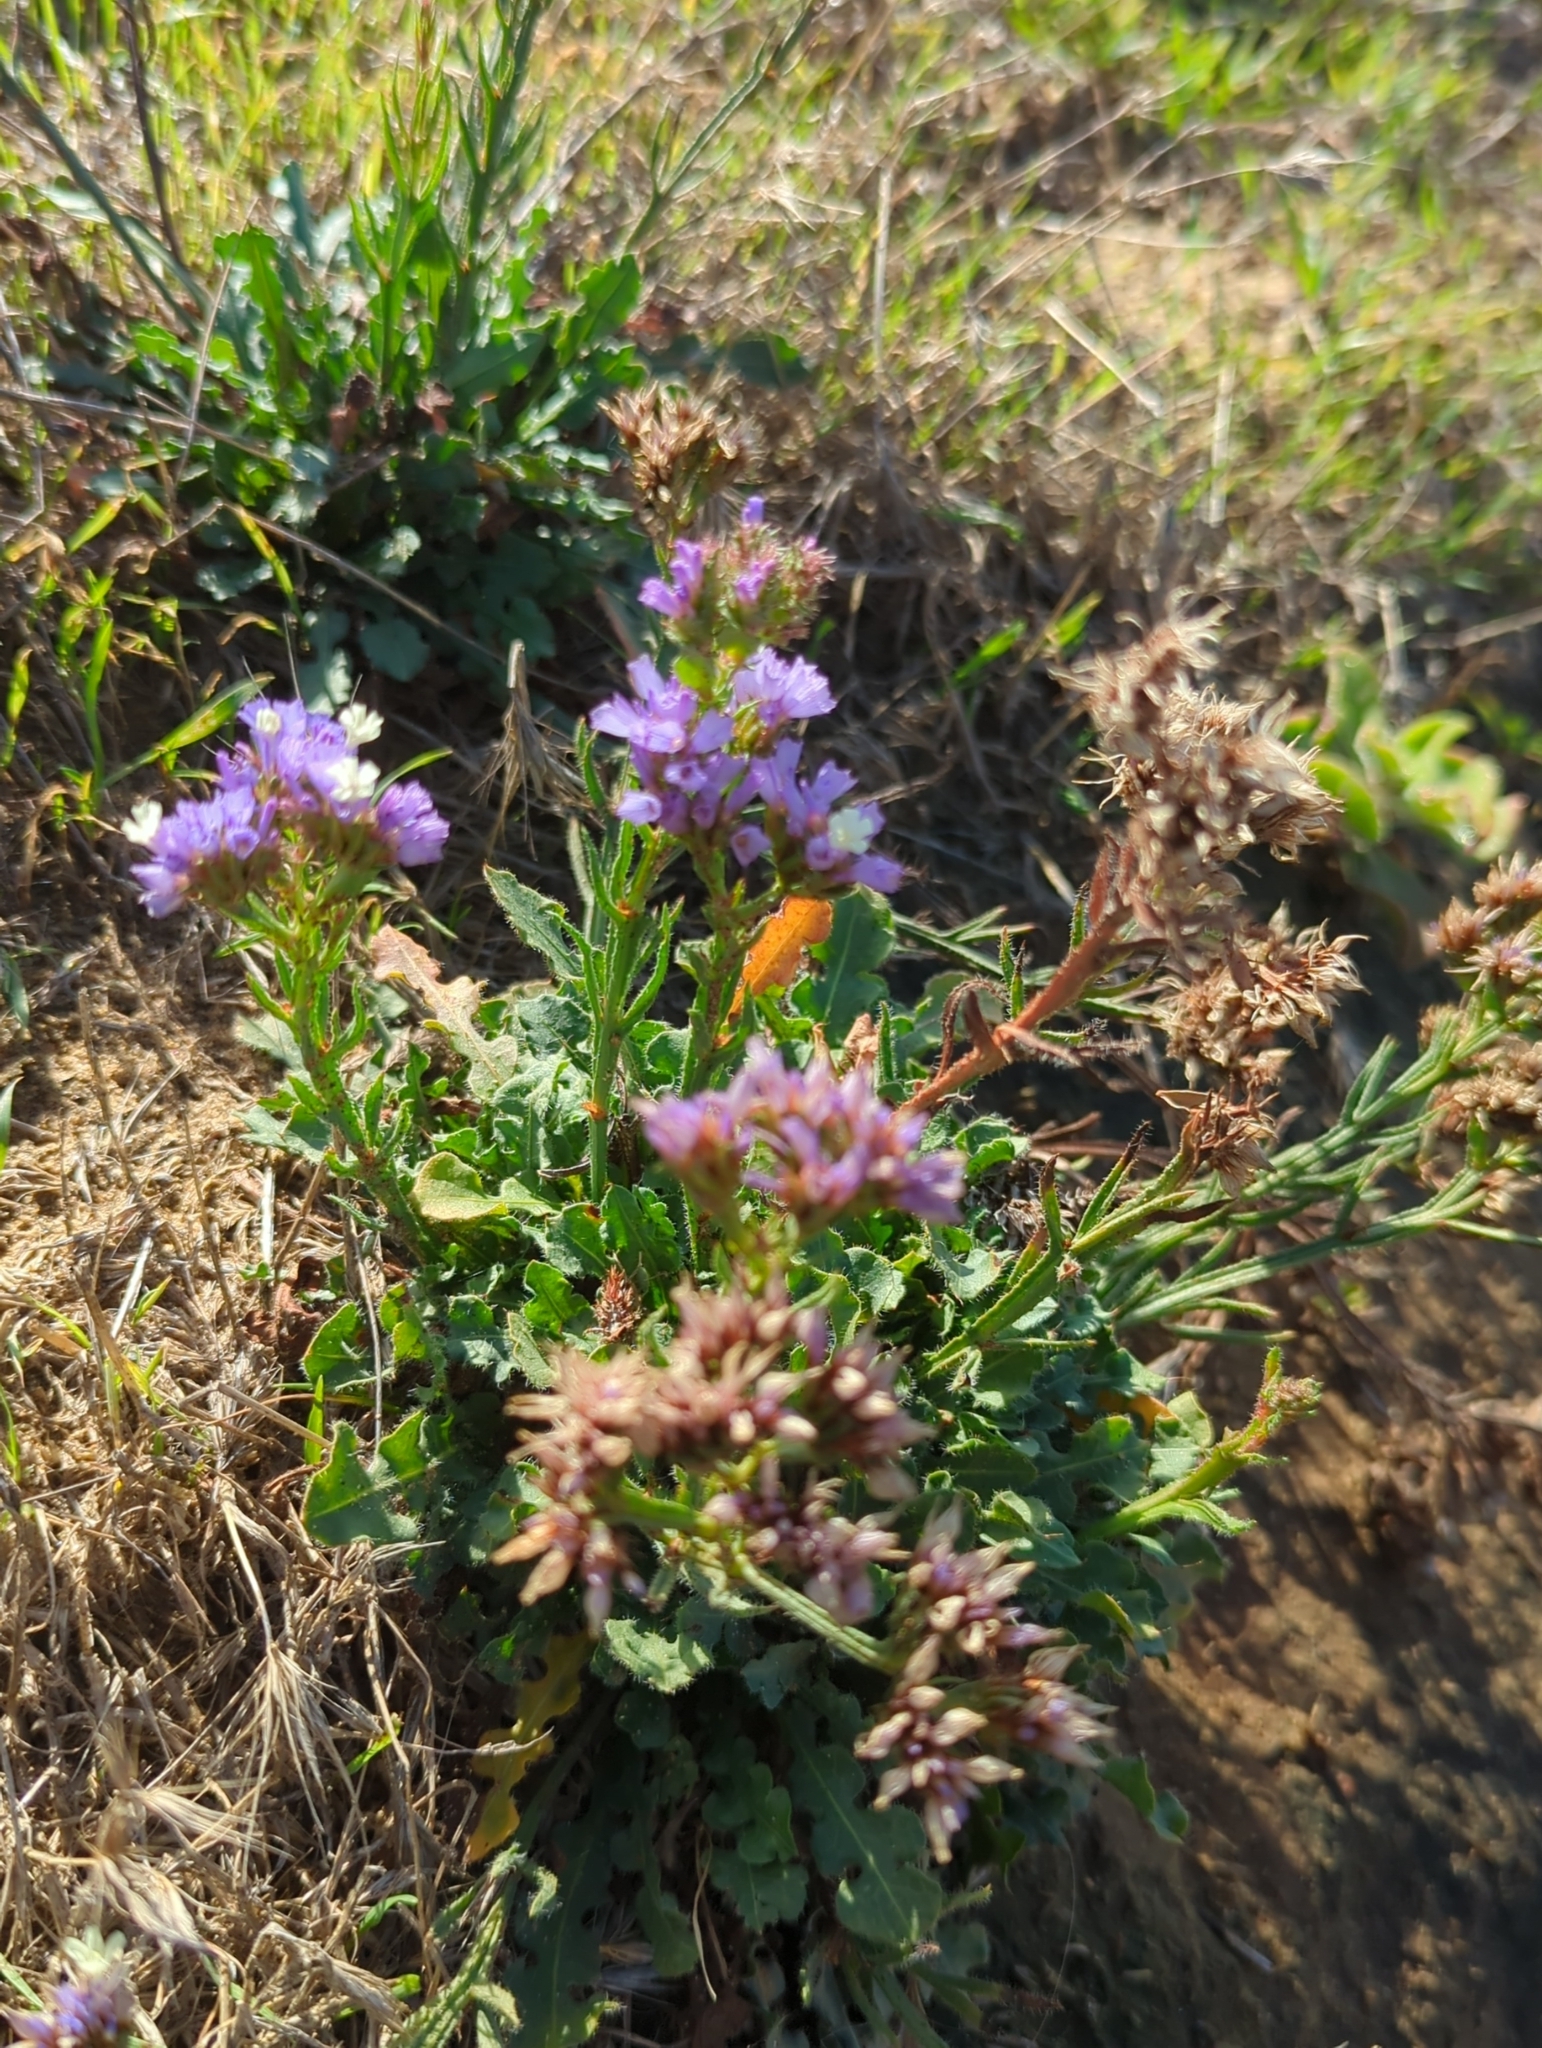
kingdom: Plantae
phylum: Tracheophyta
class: Magnoliopsida
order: Caryophyllales
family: Plumbaginaceae
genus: Limonium
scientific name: Limonium sinuatum
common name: Statice
